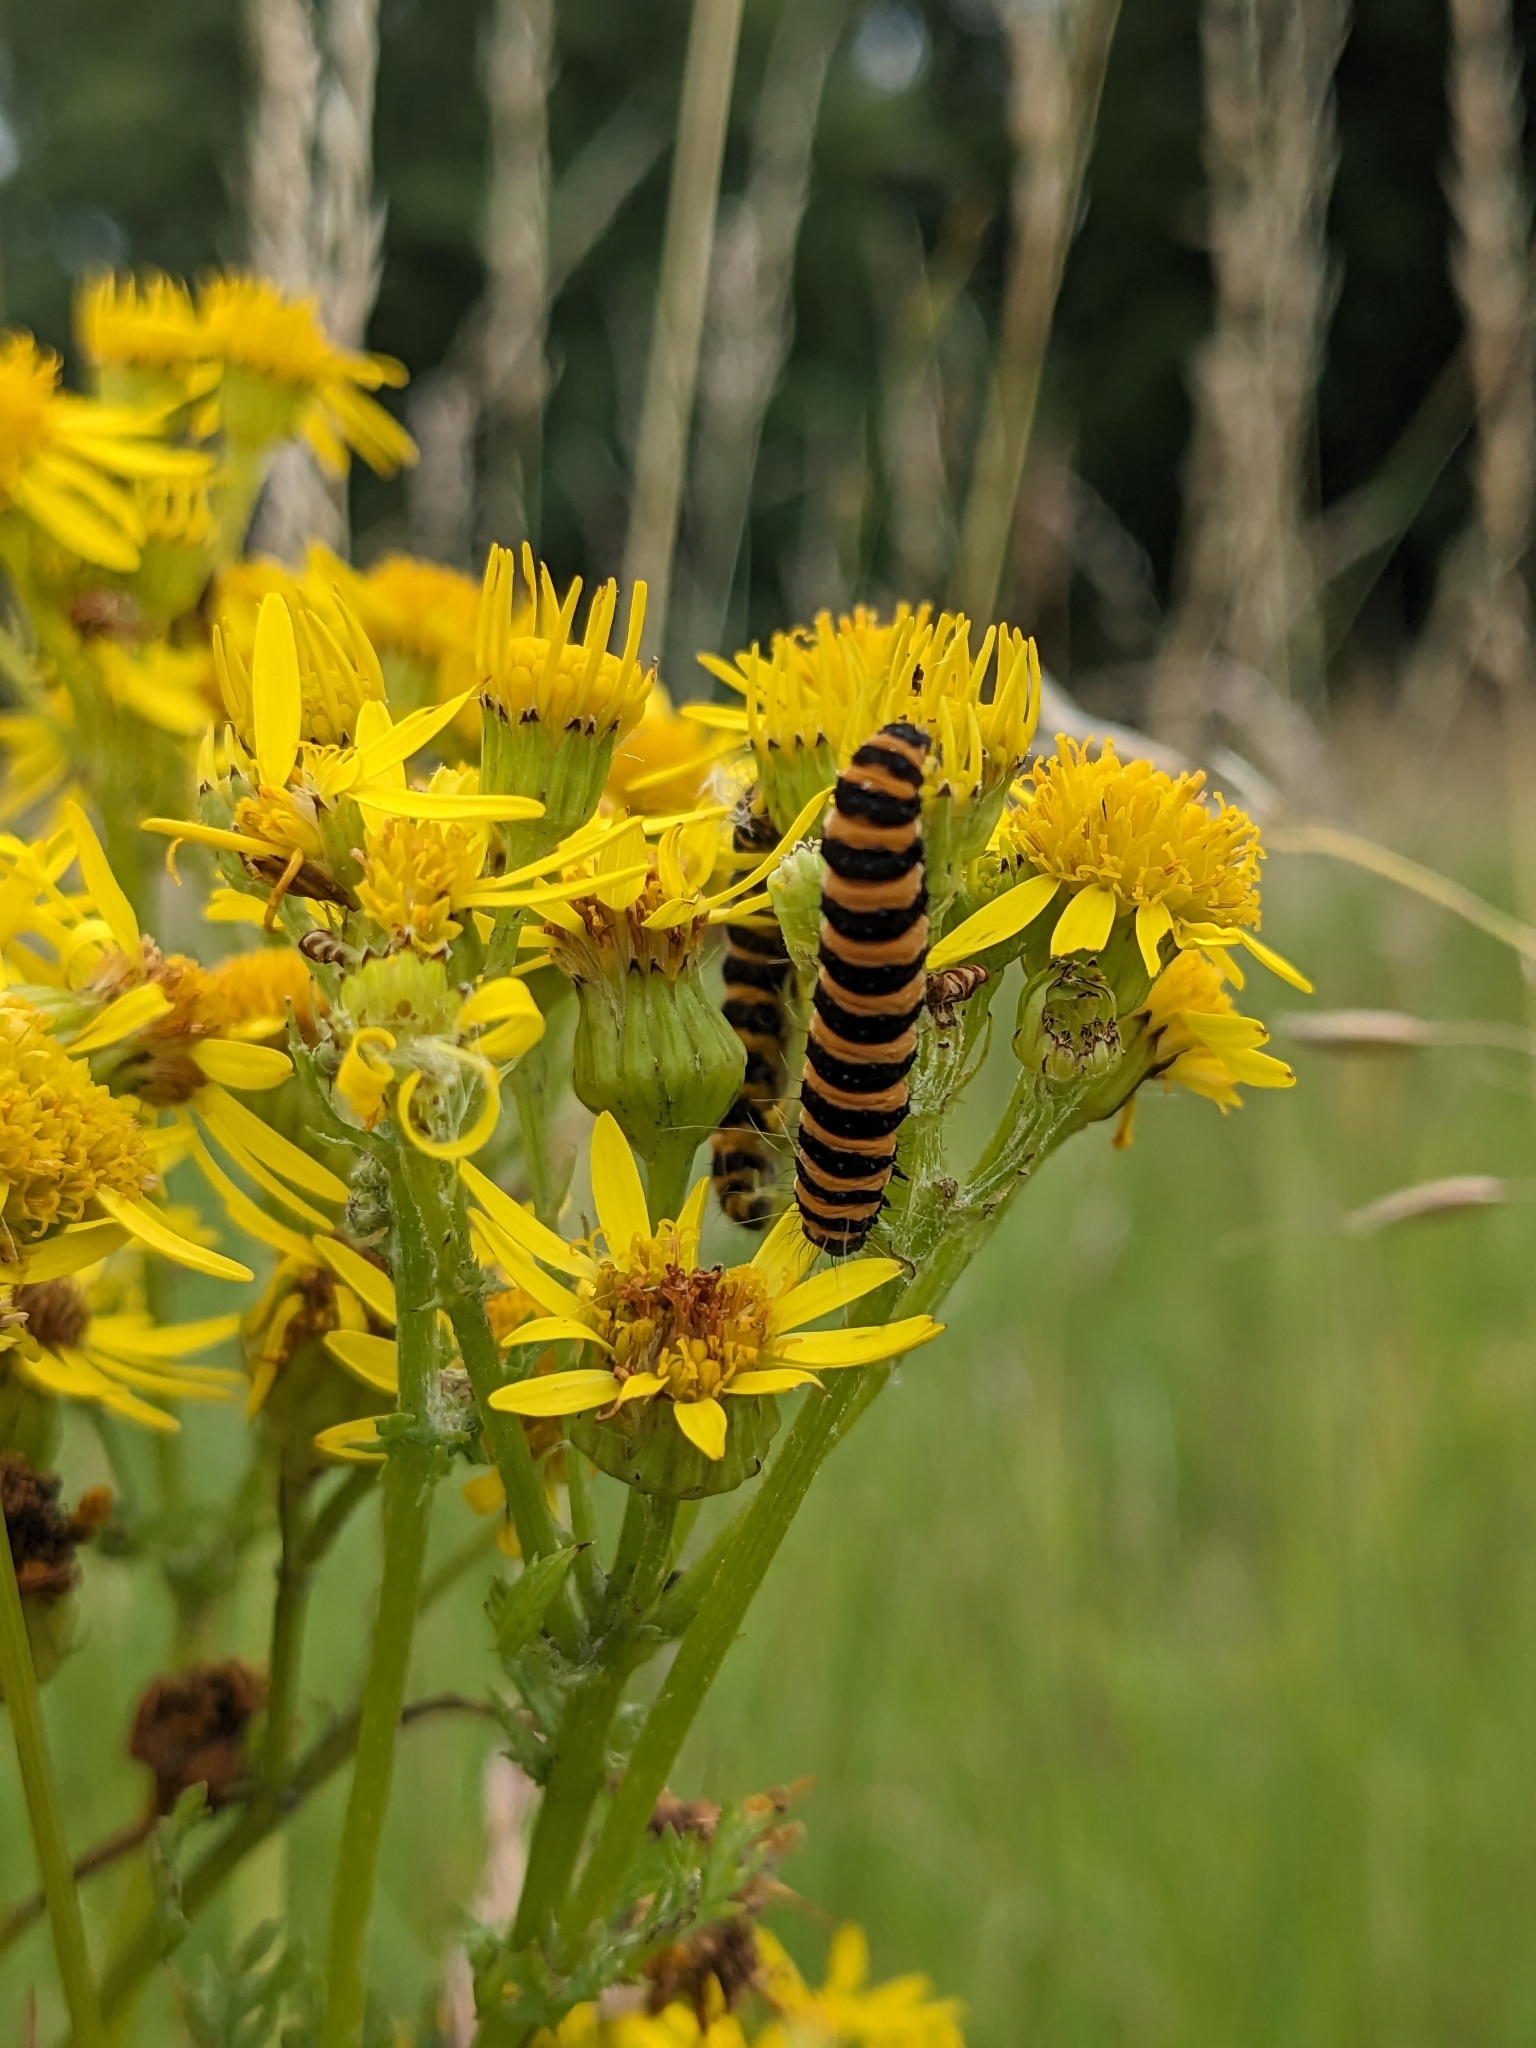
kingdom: Animalia
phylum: Arthropoda
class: Insecta
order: Lepidoptera
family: Erebidae
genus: Tyria
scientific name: Tyria jacobaeae
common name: Cinnabar
